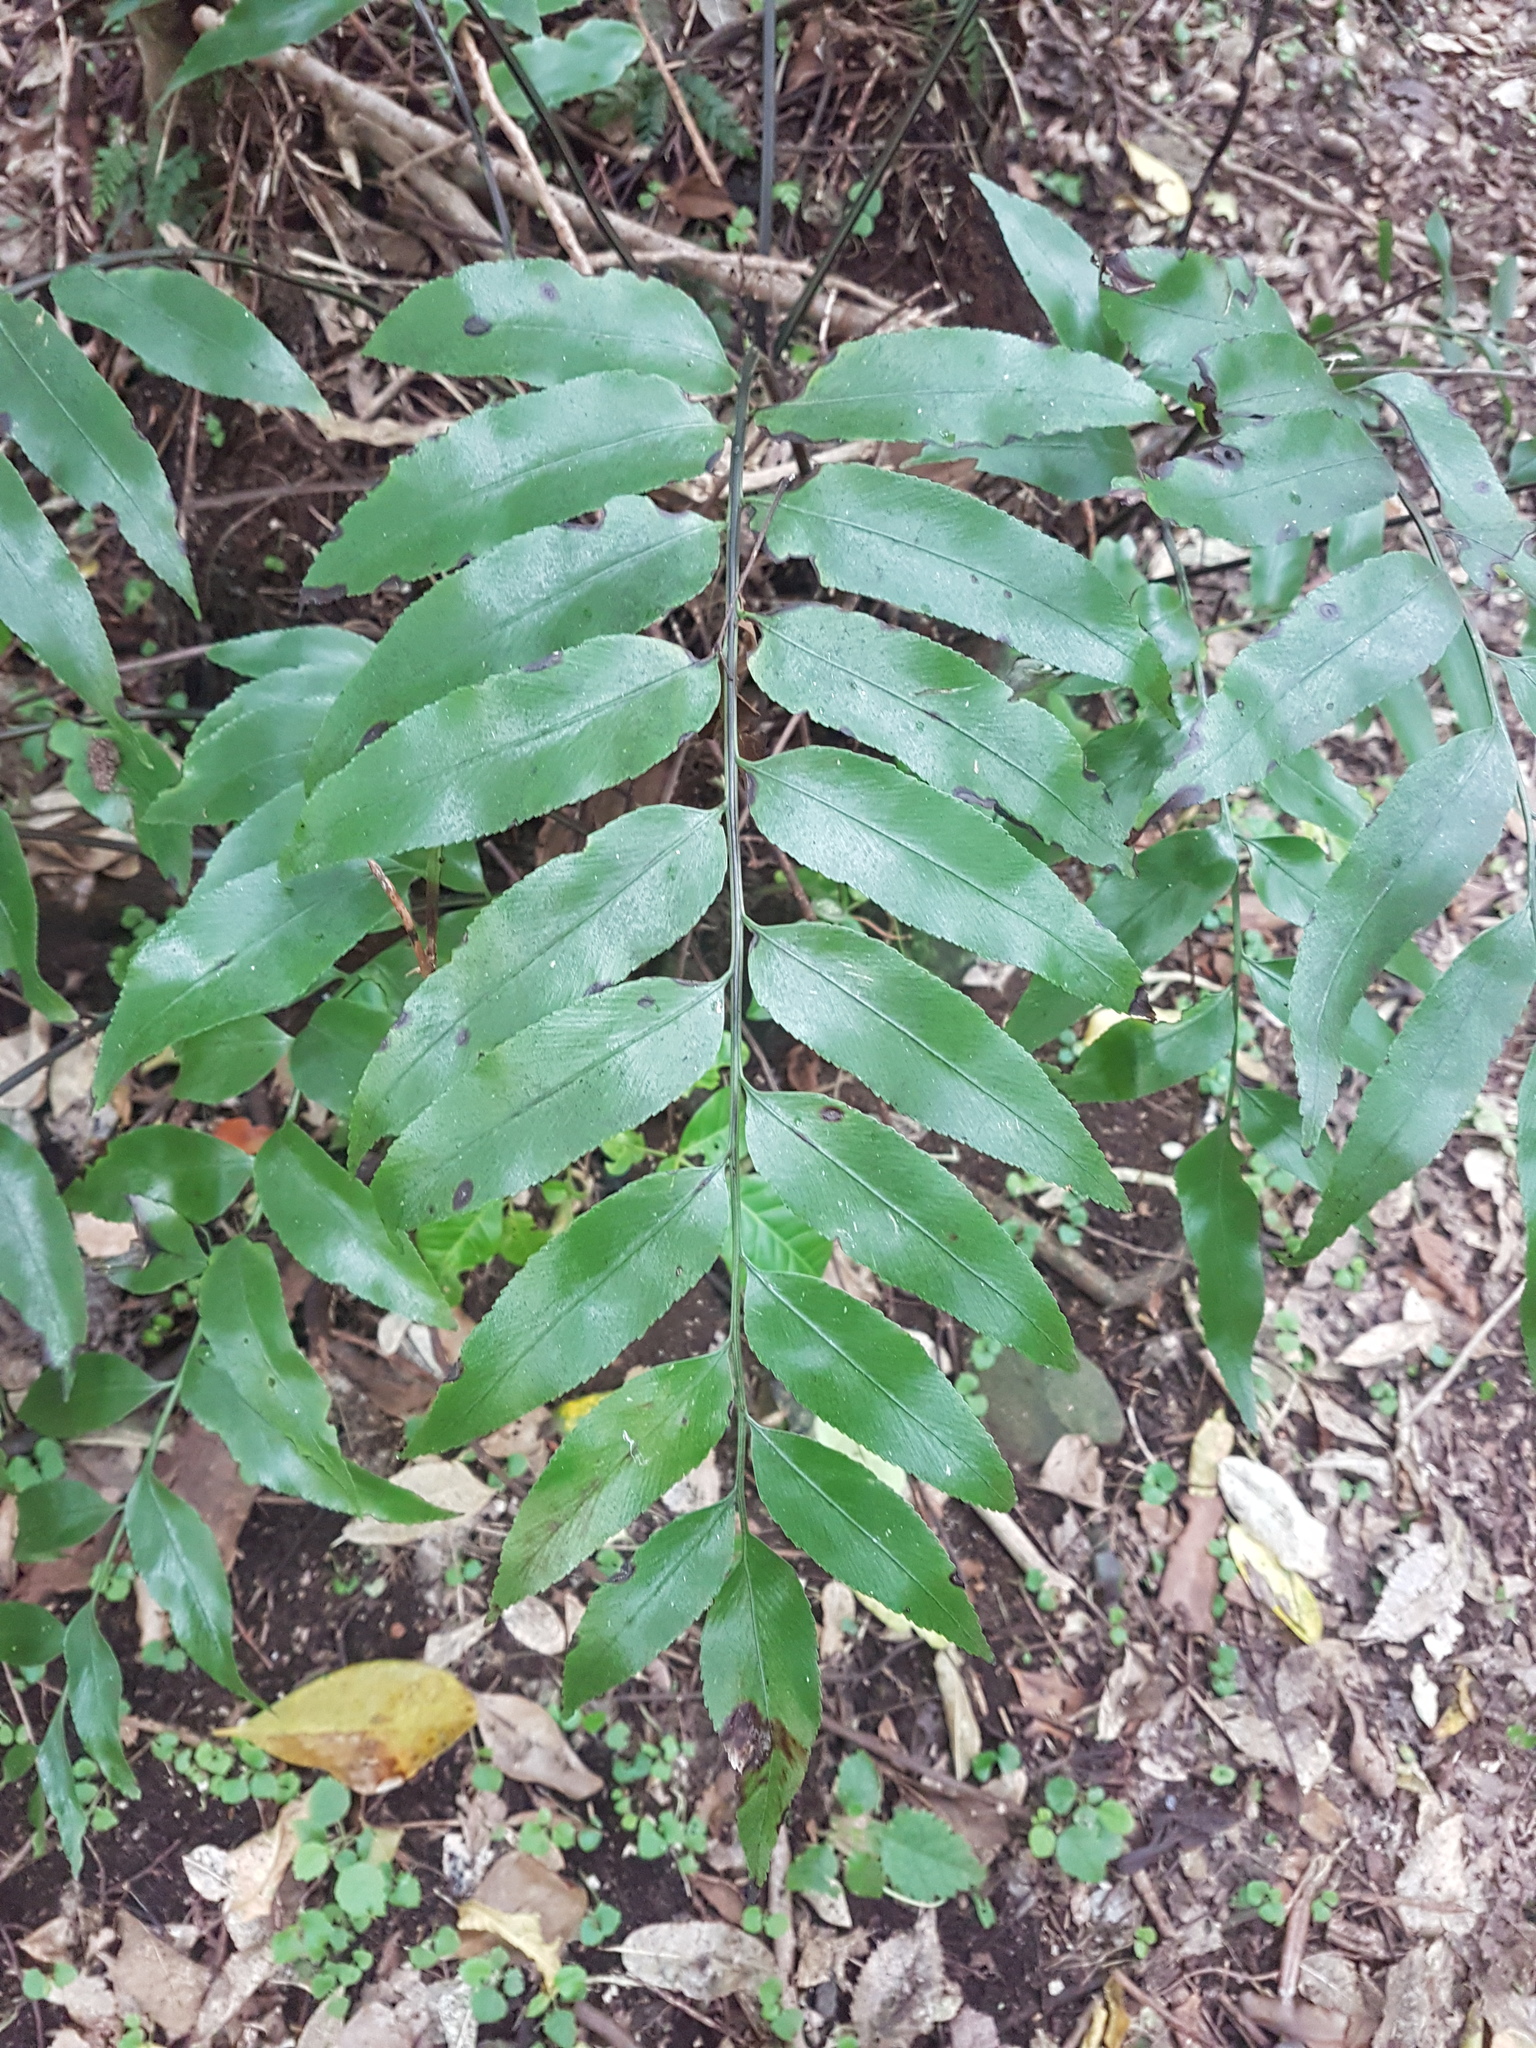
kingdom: Plantae
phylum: Tracheophyta
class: Polypodiopsida
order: Polypodiales
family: Aspleniaceae
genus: Asplenium
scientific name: Asplenium oblongifolium
